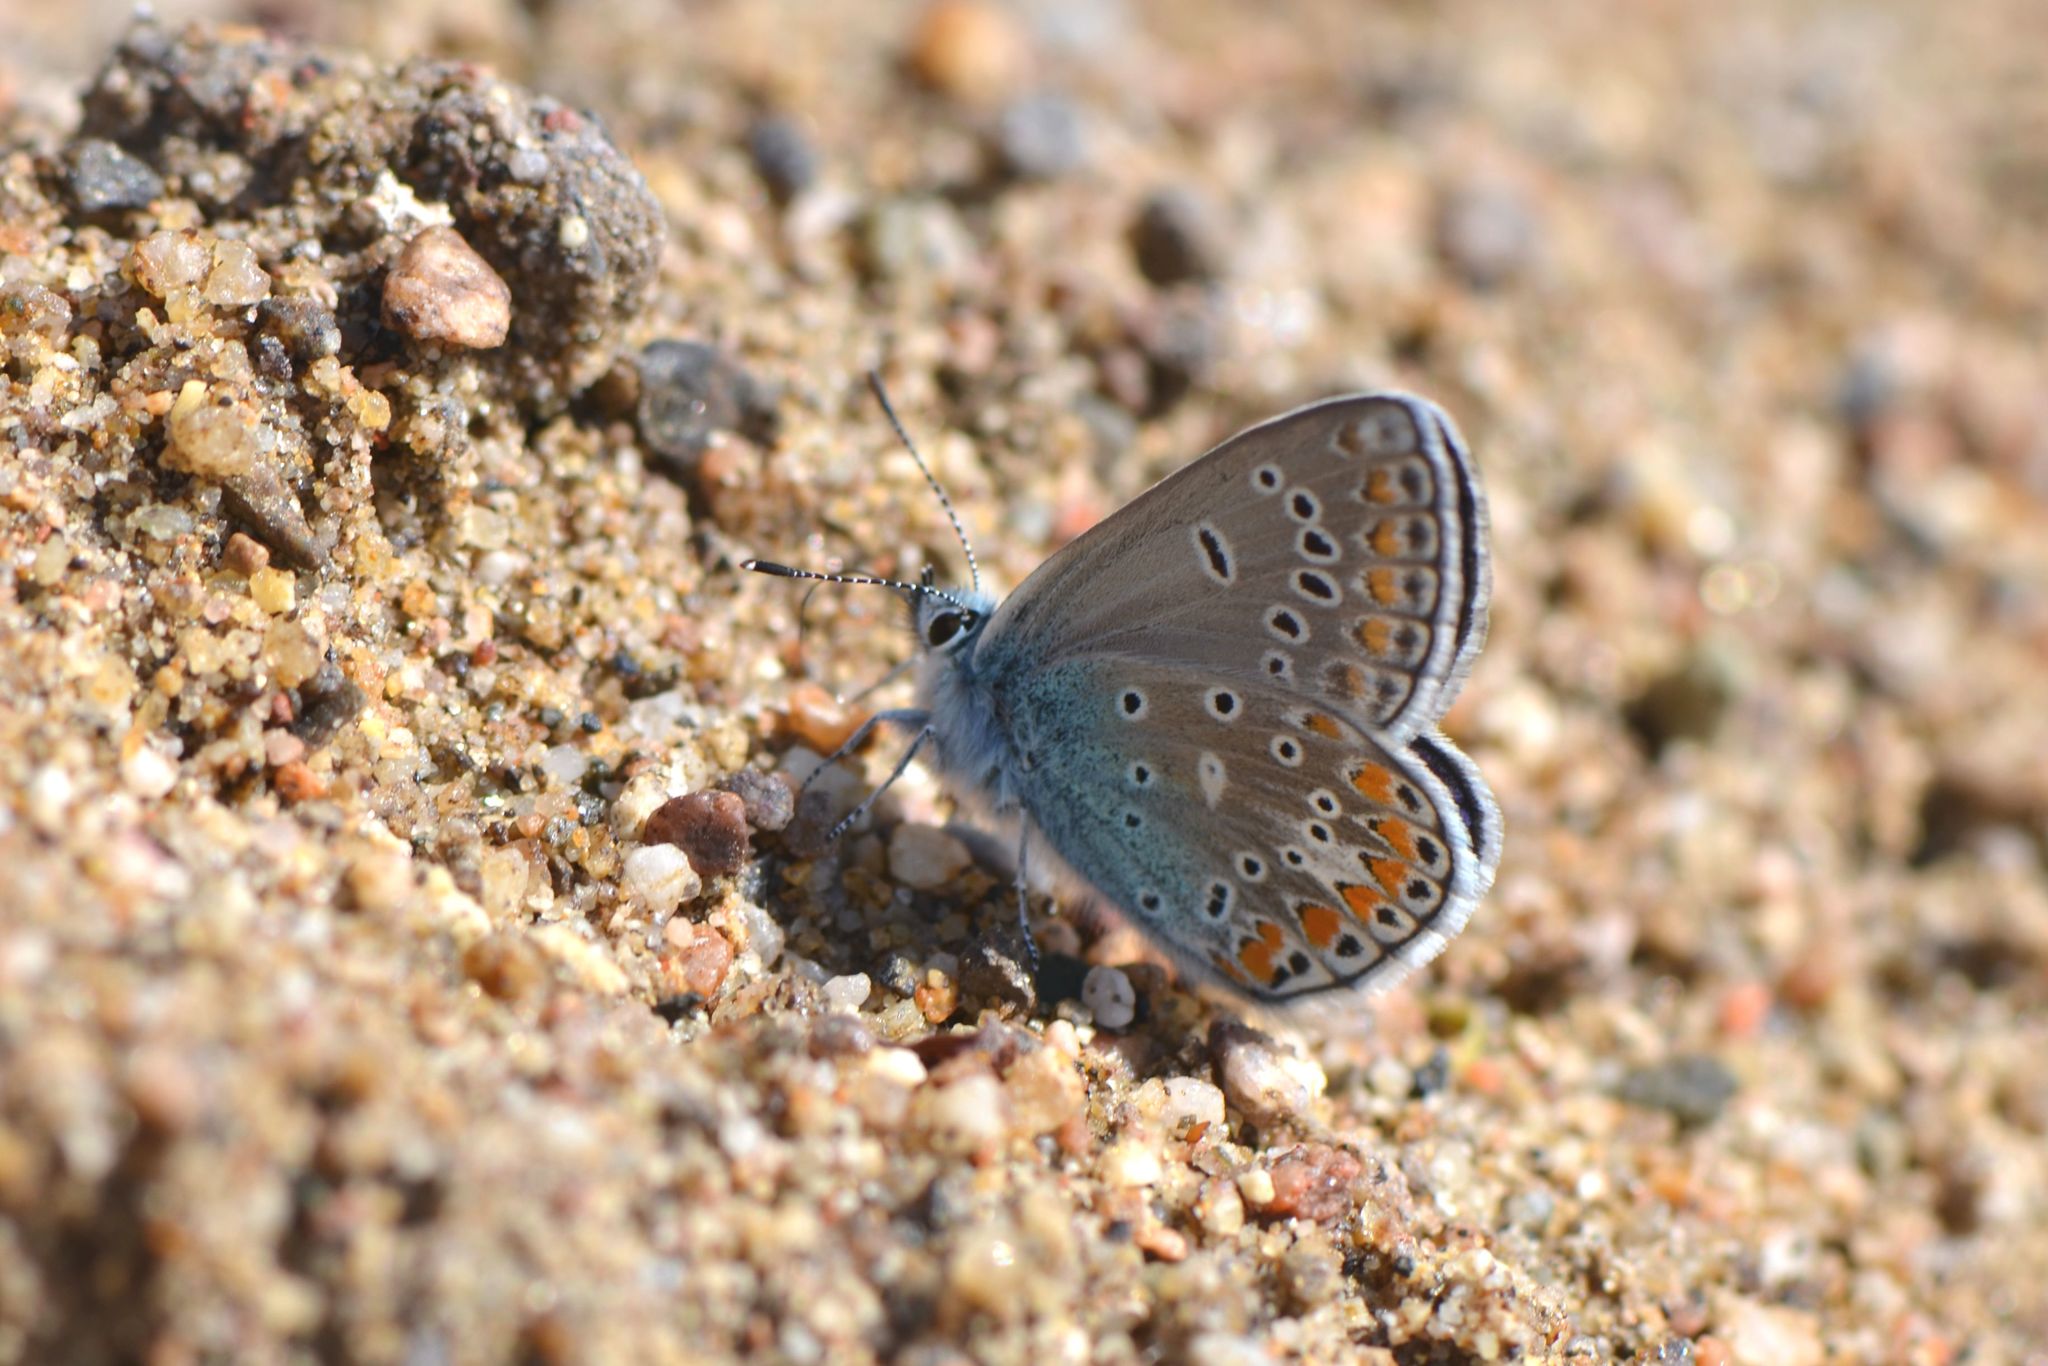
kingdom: Animalia
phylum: Arthropoda
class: Insecta
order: Lepidoptera
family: Lycaenidae
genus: Polyommatus
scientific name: Polyommatus thersites
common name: Chapman's blue
